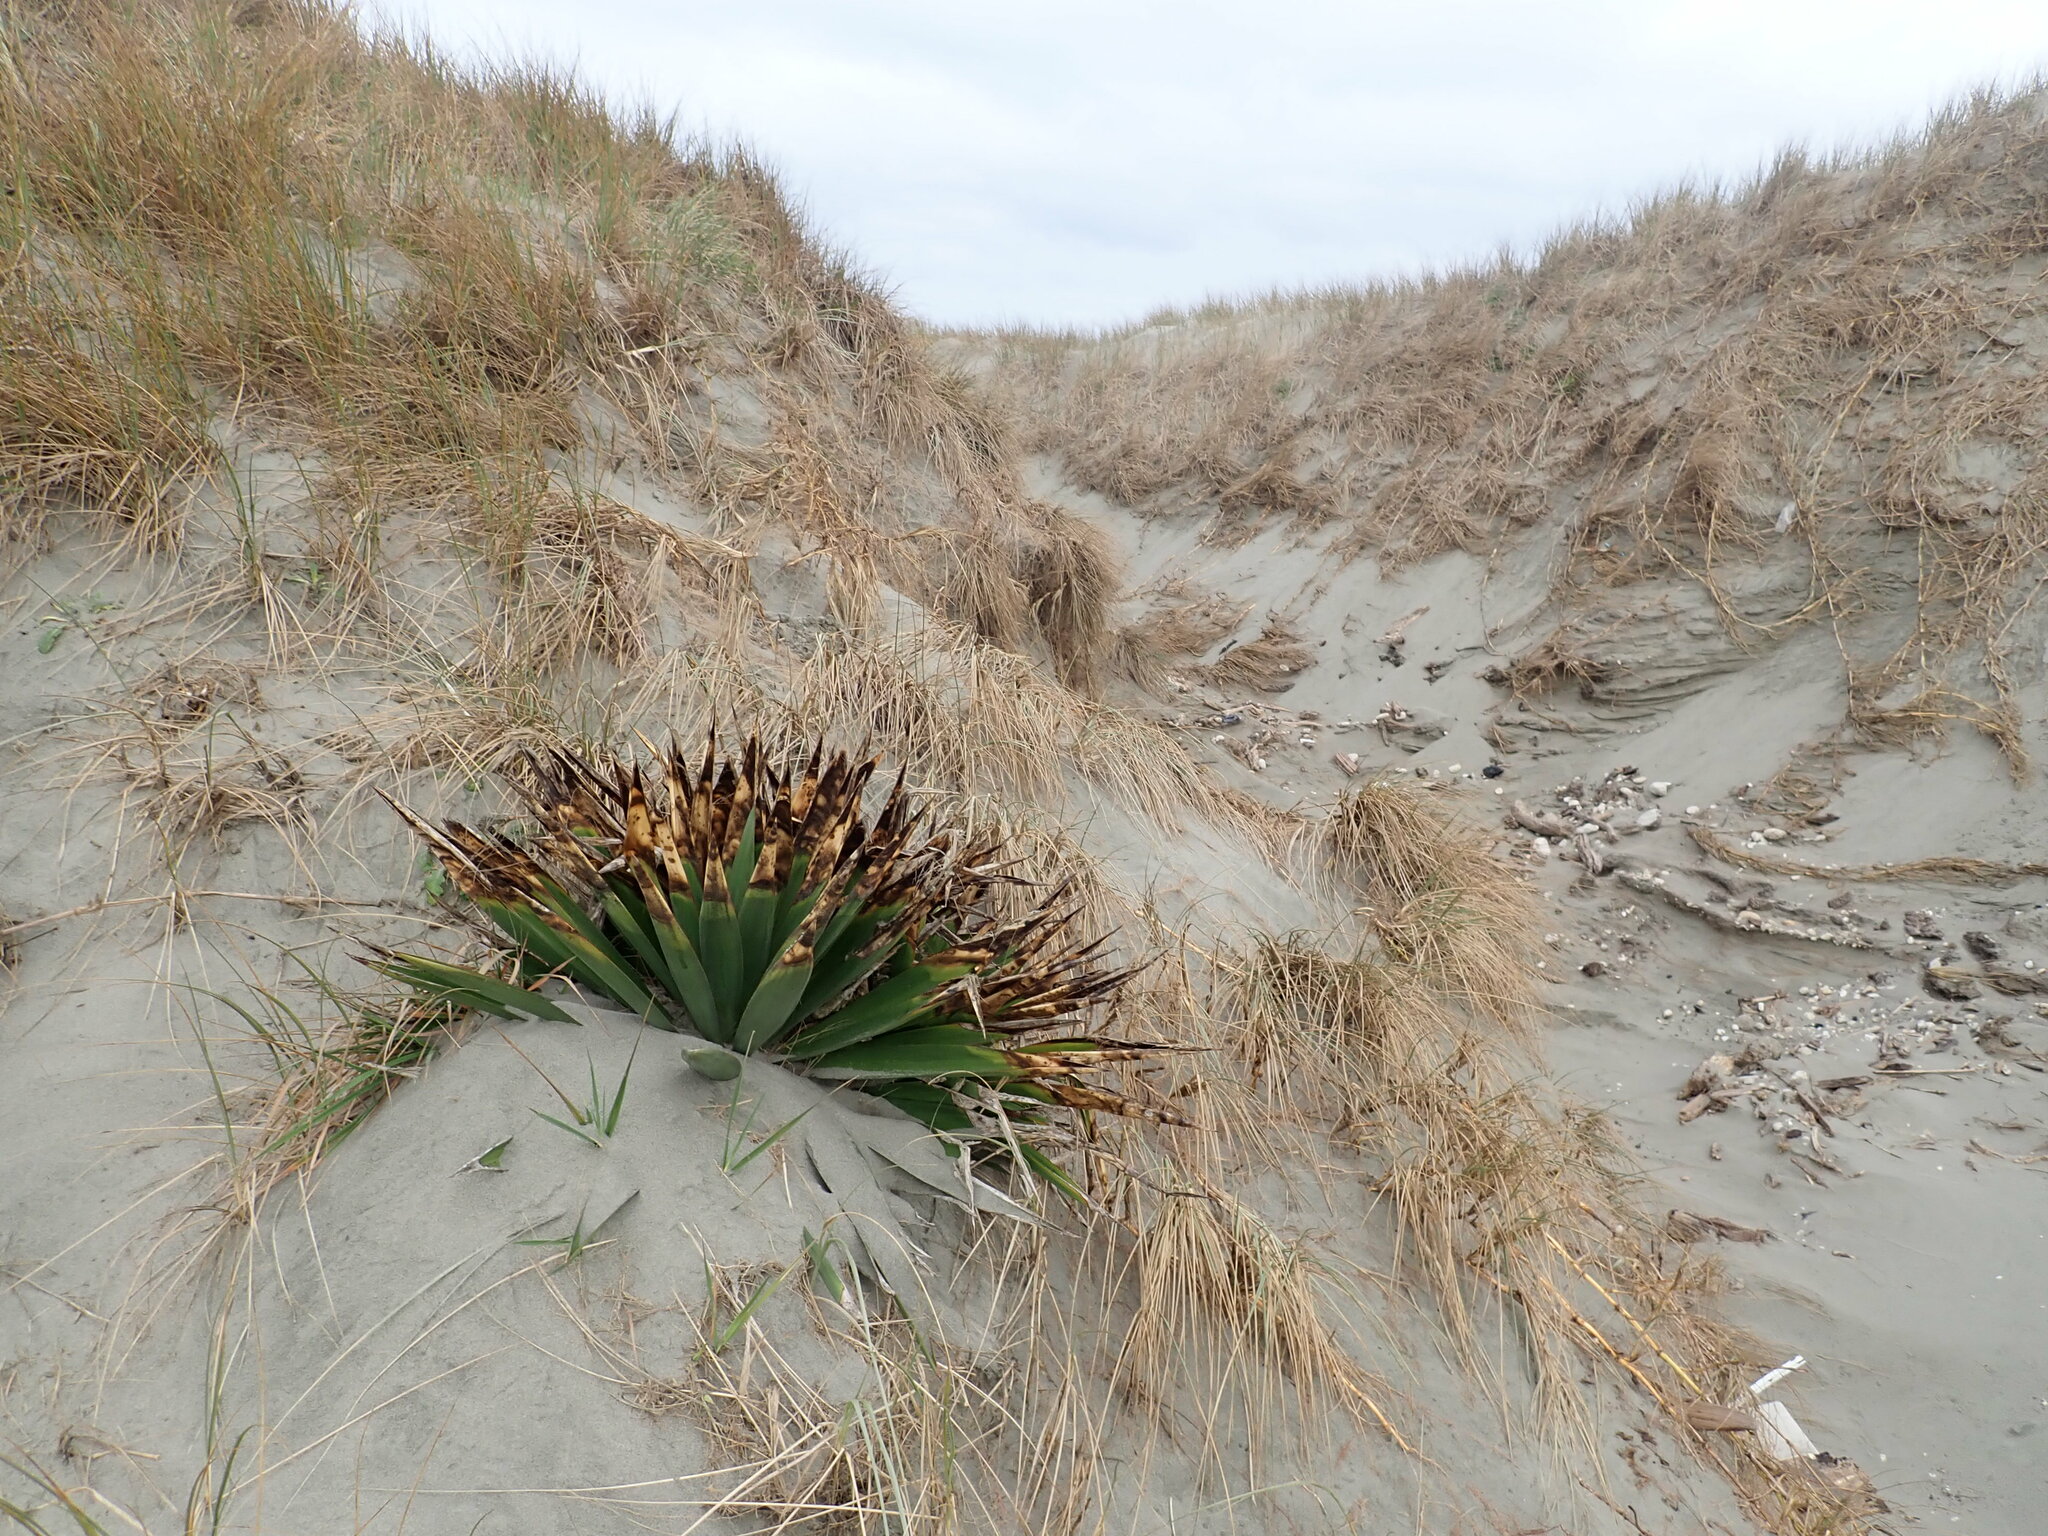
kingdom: Plantae
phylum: Tracheophyta
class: Liliopsida
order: Asparagales
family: Asparagaceae
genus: Yucca
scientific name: Yucca gloriosa
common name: Spanish-dagger
